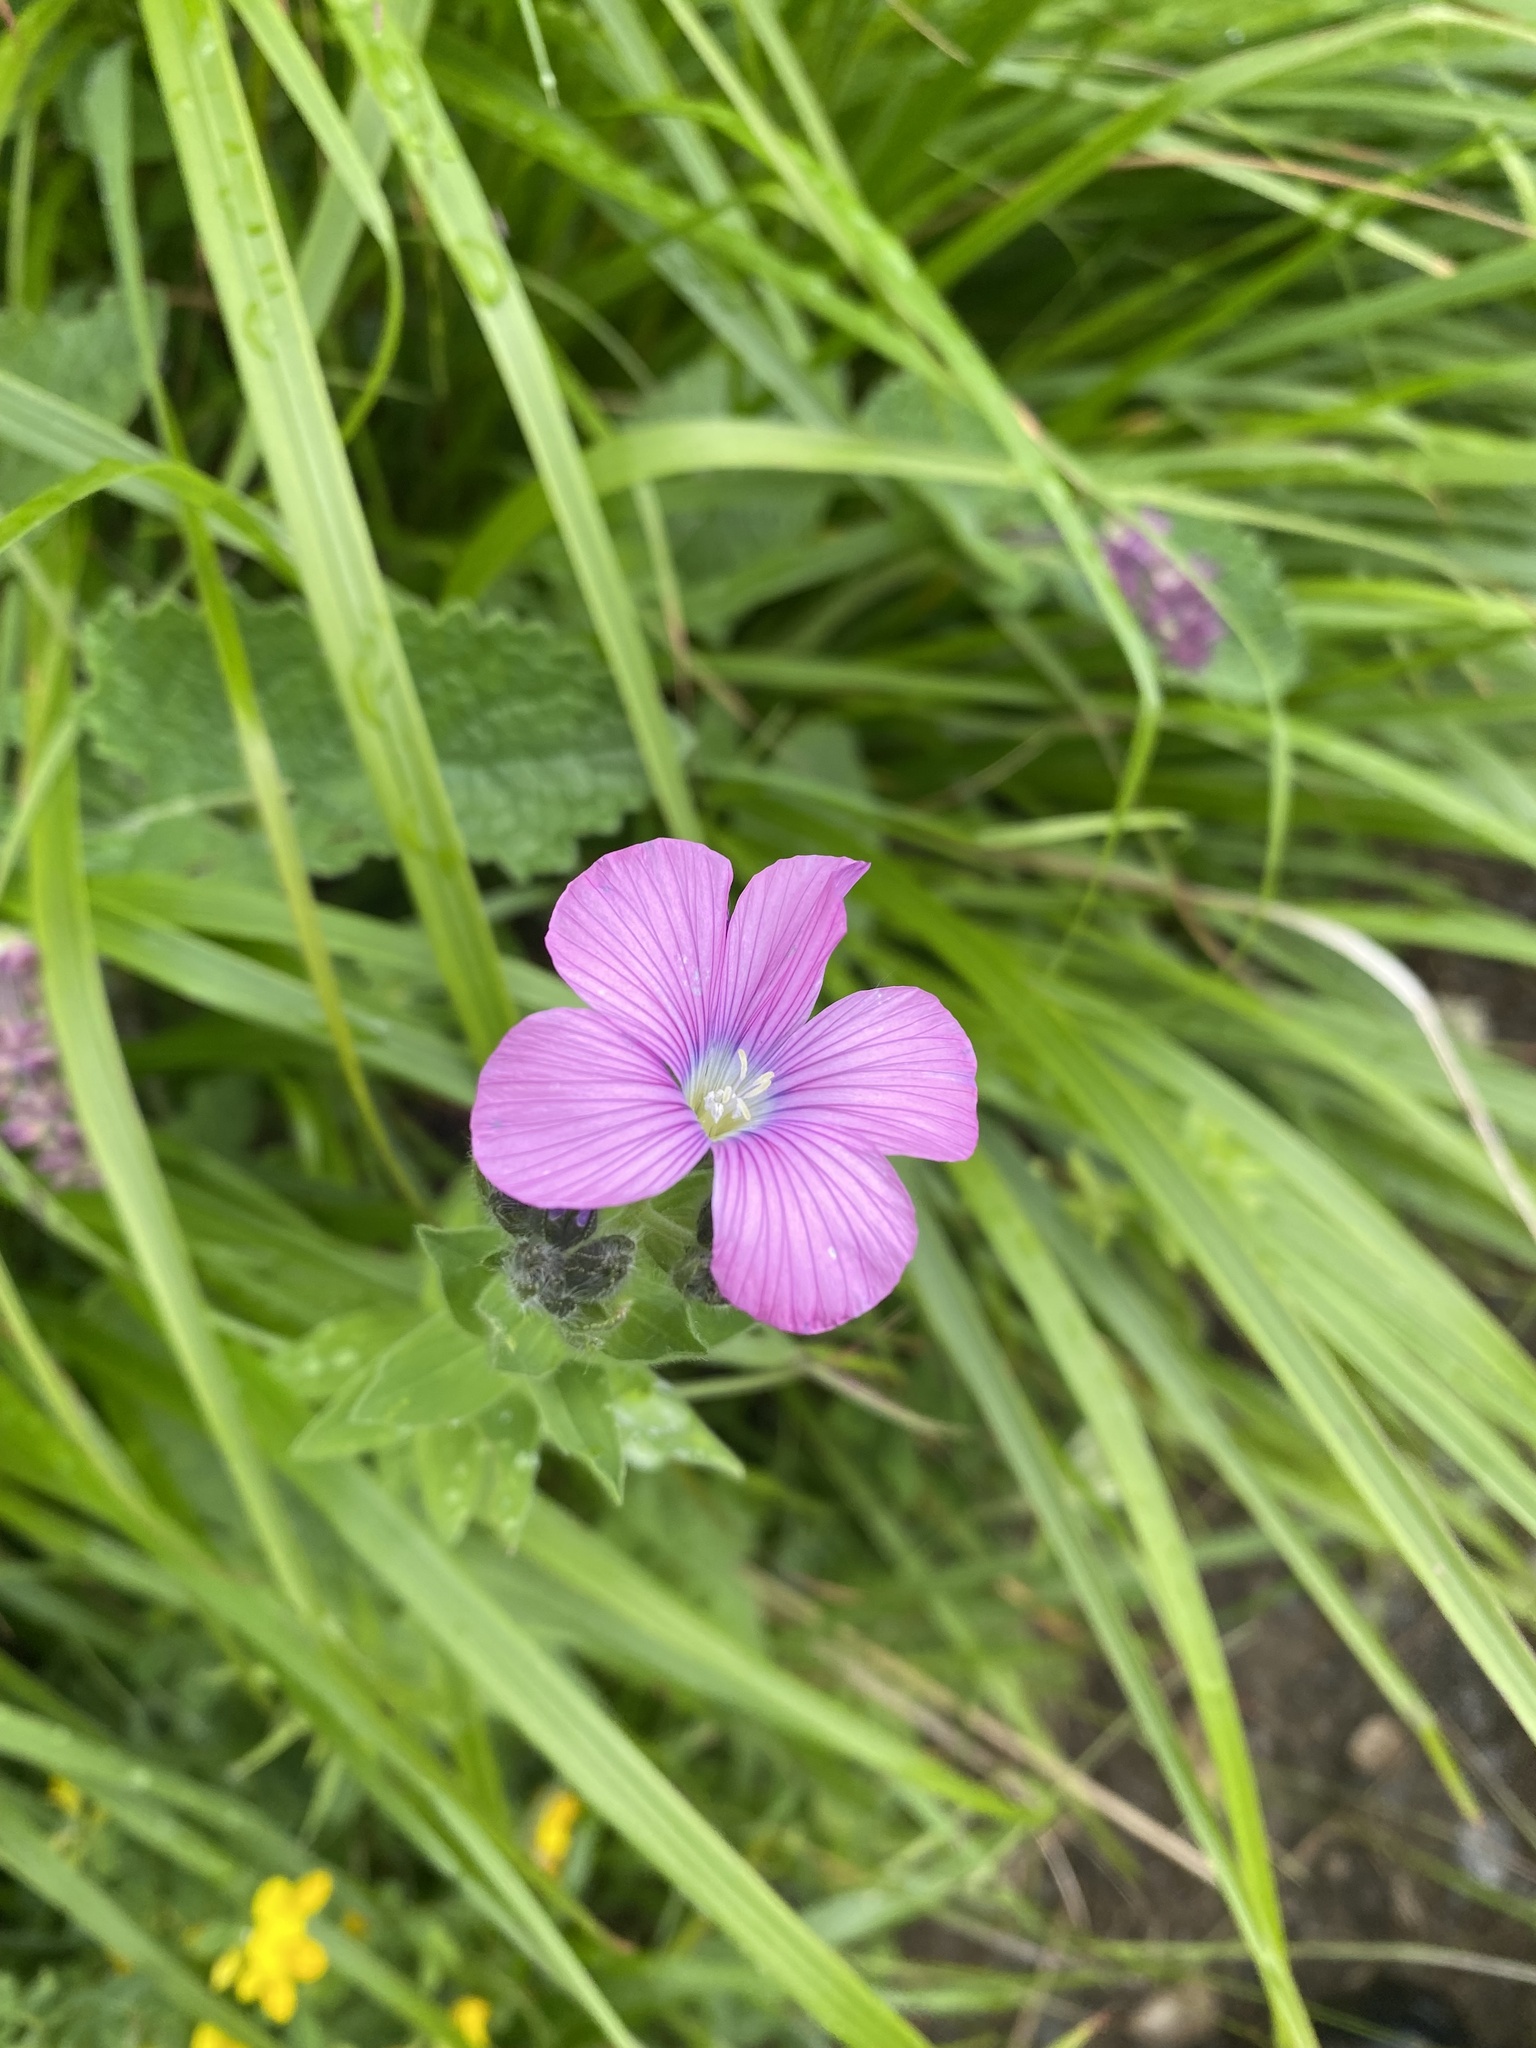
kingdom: Plantae
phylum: Tracheophyta
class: Magnoliopsida
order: Malpighiales
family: Linaceae
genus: Linum
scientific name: Linum hypericifolium
